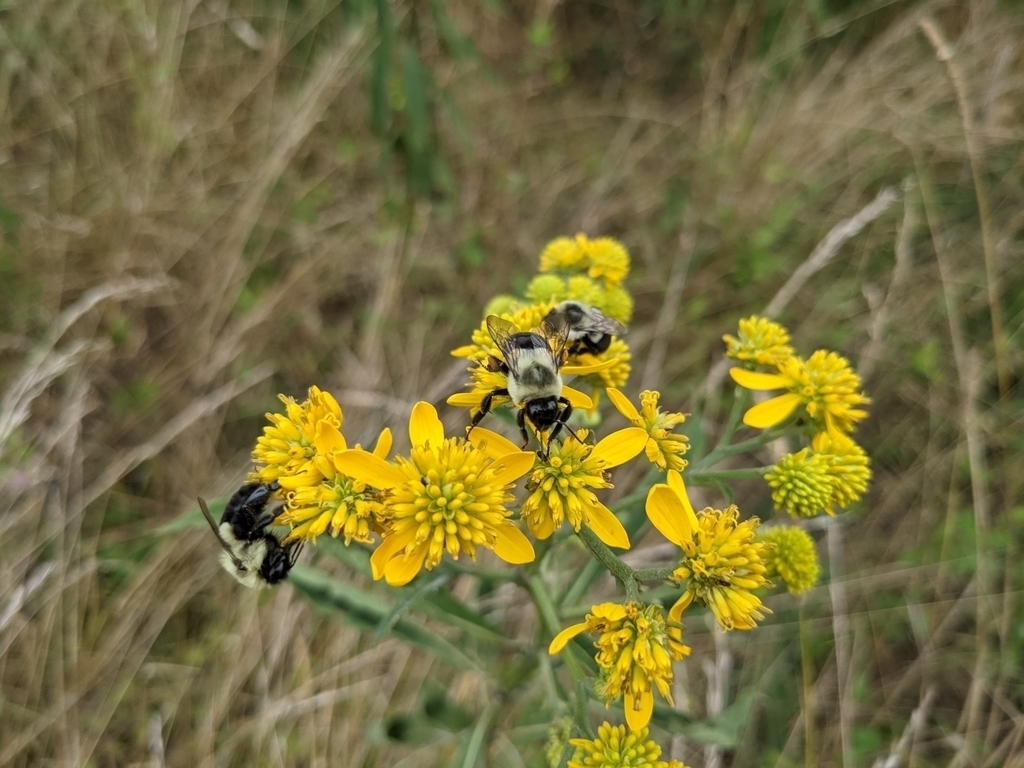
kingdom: Plantae
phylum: Tracheophyta
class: Magnoliopsida
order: Asterales
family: Asteraceae
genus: Verbesina
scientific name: Verbesina alternifolia
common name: Wingstem
